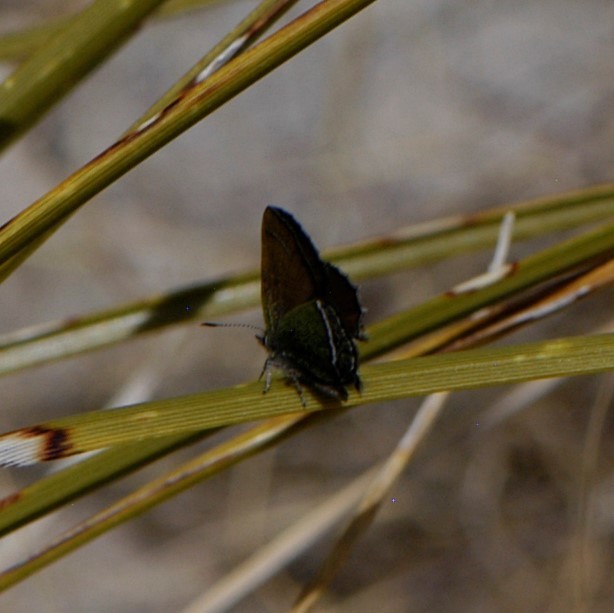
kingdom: Animalia
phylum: Arthropoda
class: Insecta
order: Lepidoptera
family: Lycaenidae
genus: Sandia
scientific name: Sandia mcfarlandi
